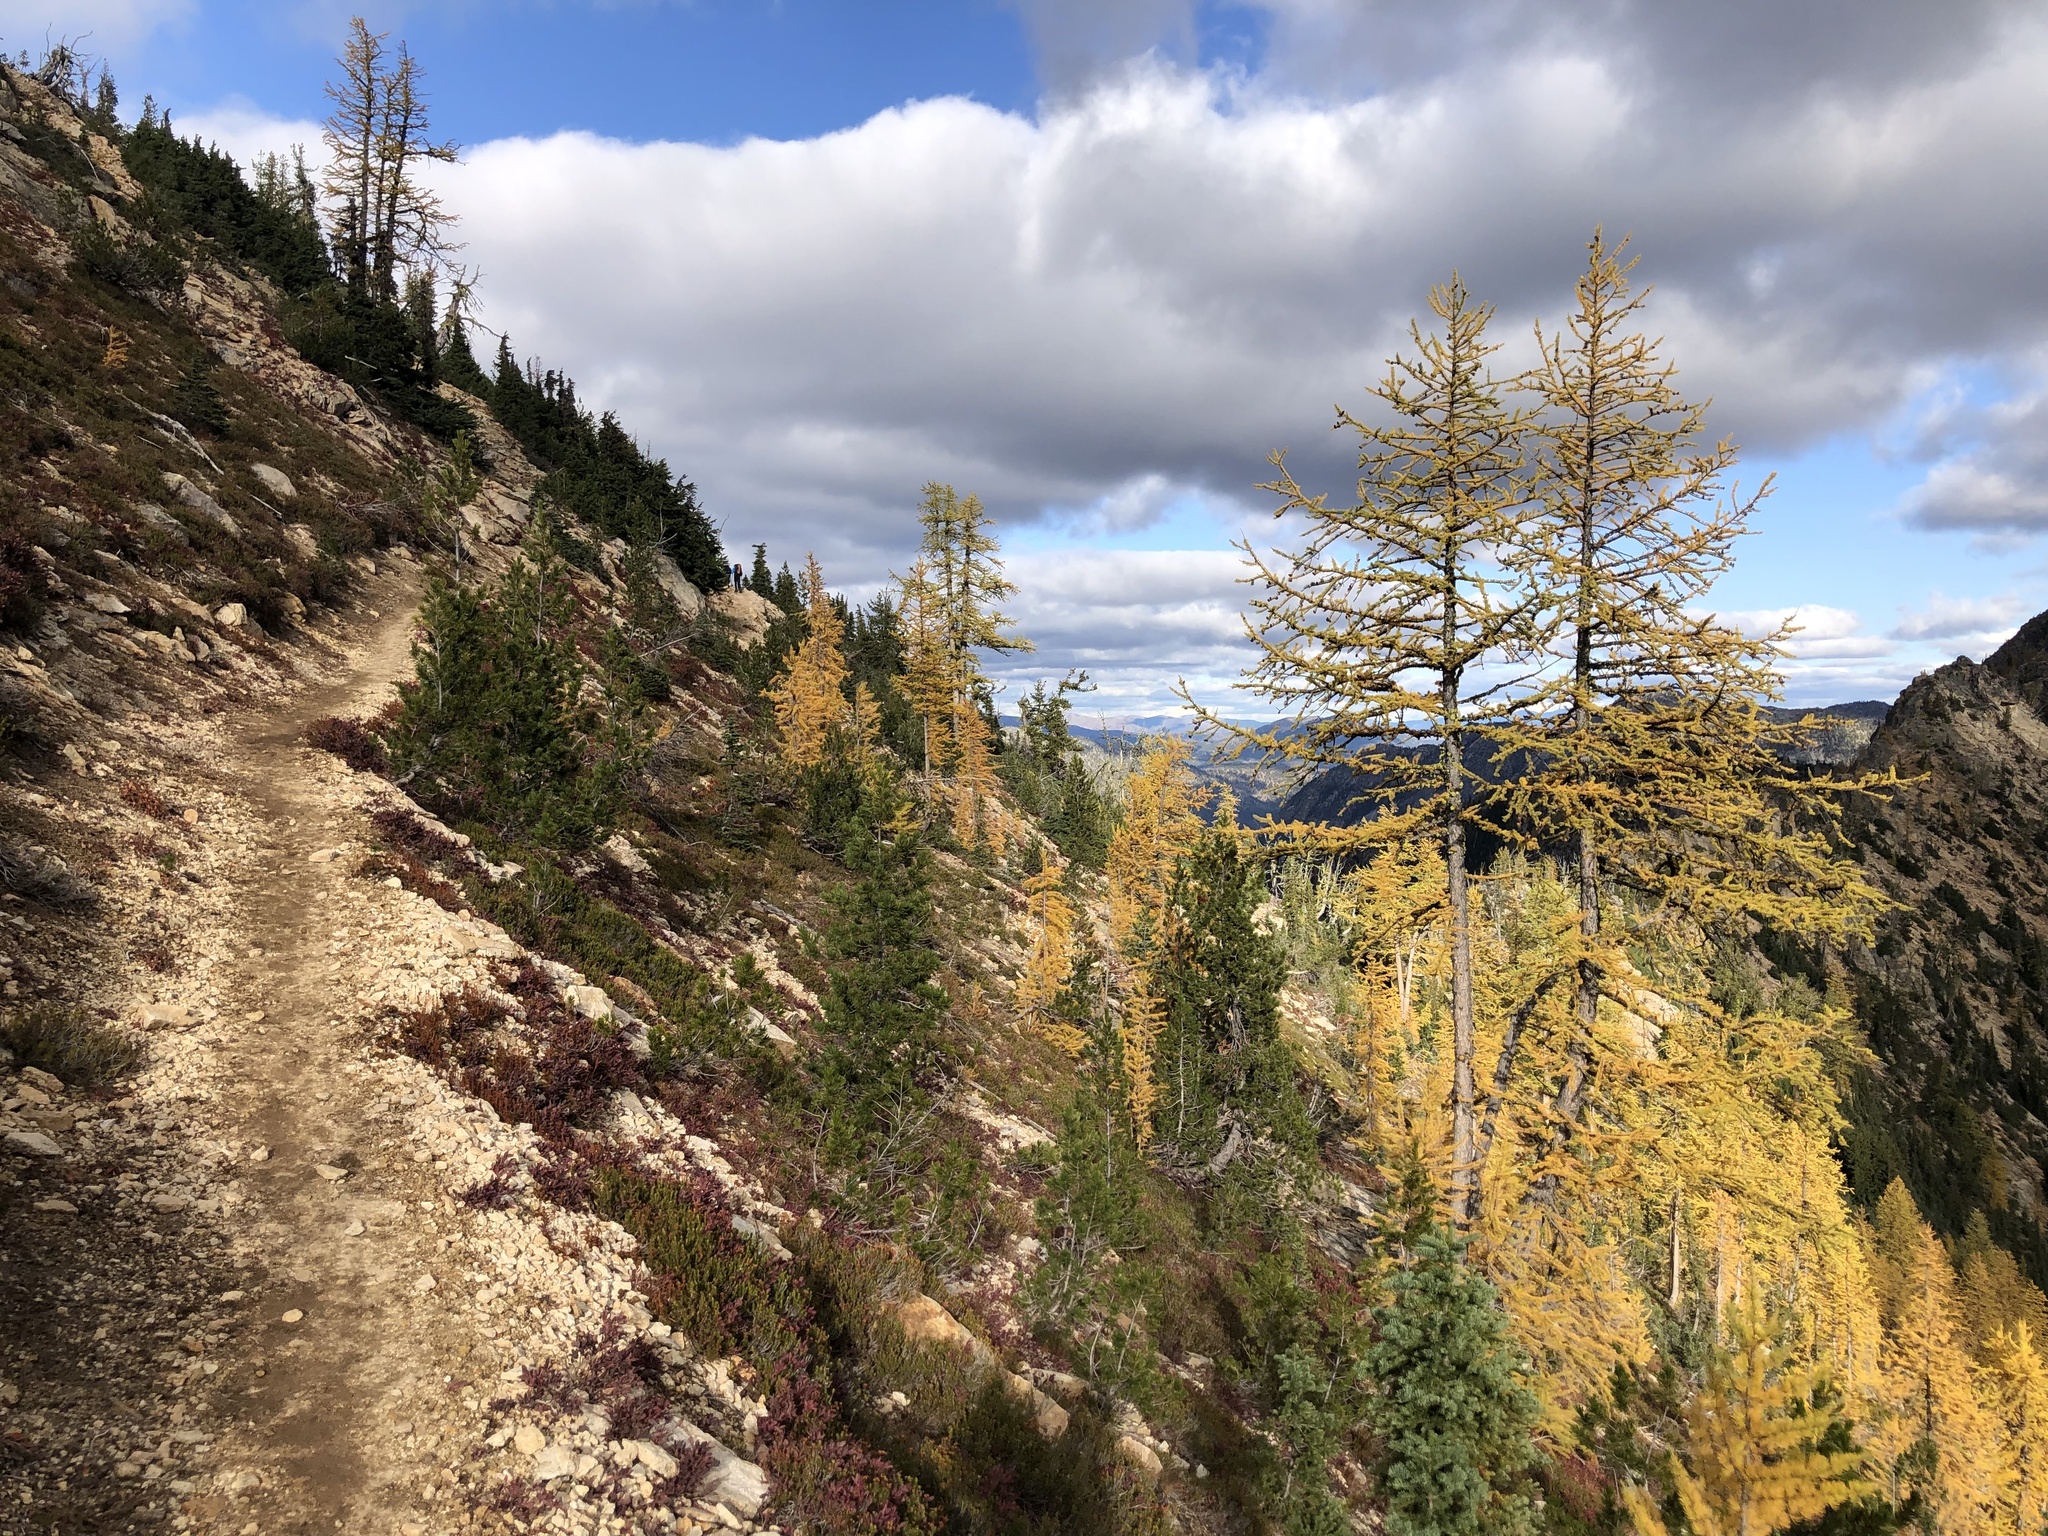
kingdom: Plantae
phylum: Tracheophyta
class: Pinopsida
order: Pinales
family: Pinaceae
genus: Larix
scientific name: Larix lyallii
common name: Alpine larch
